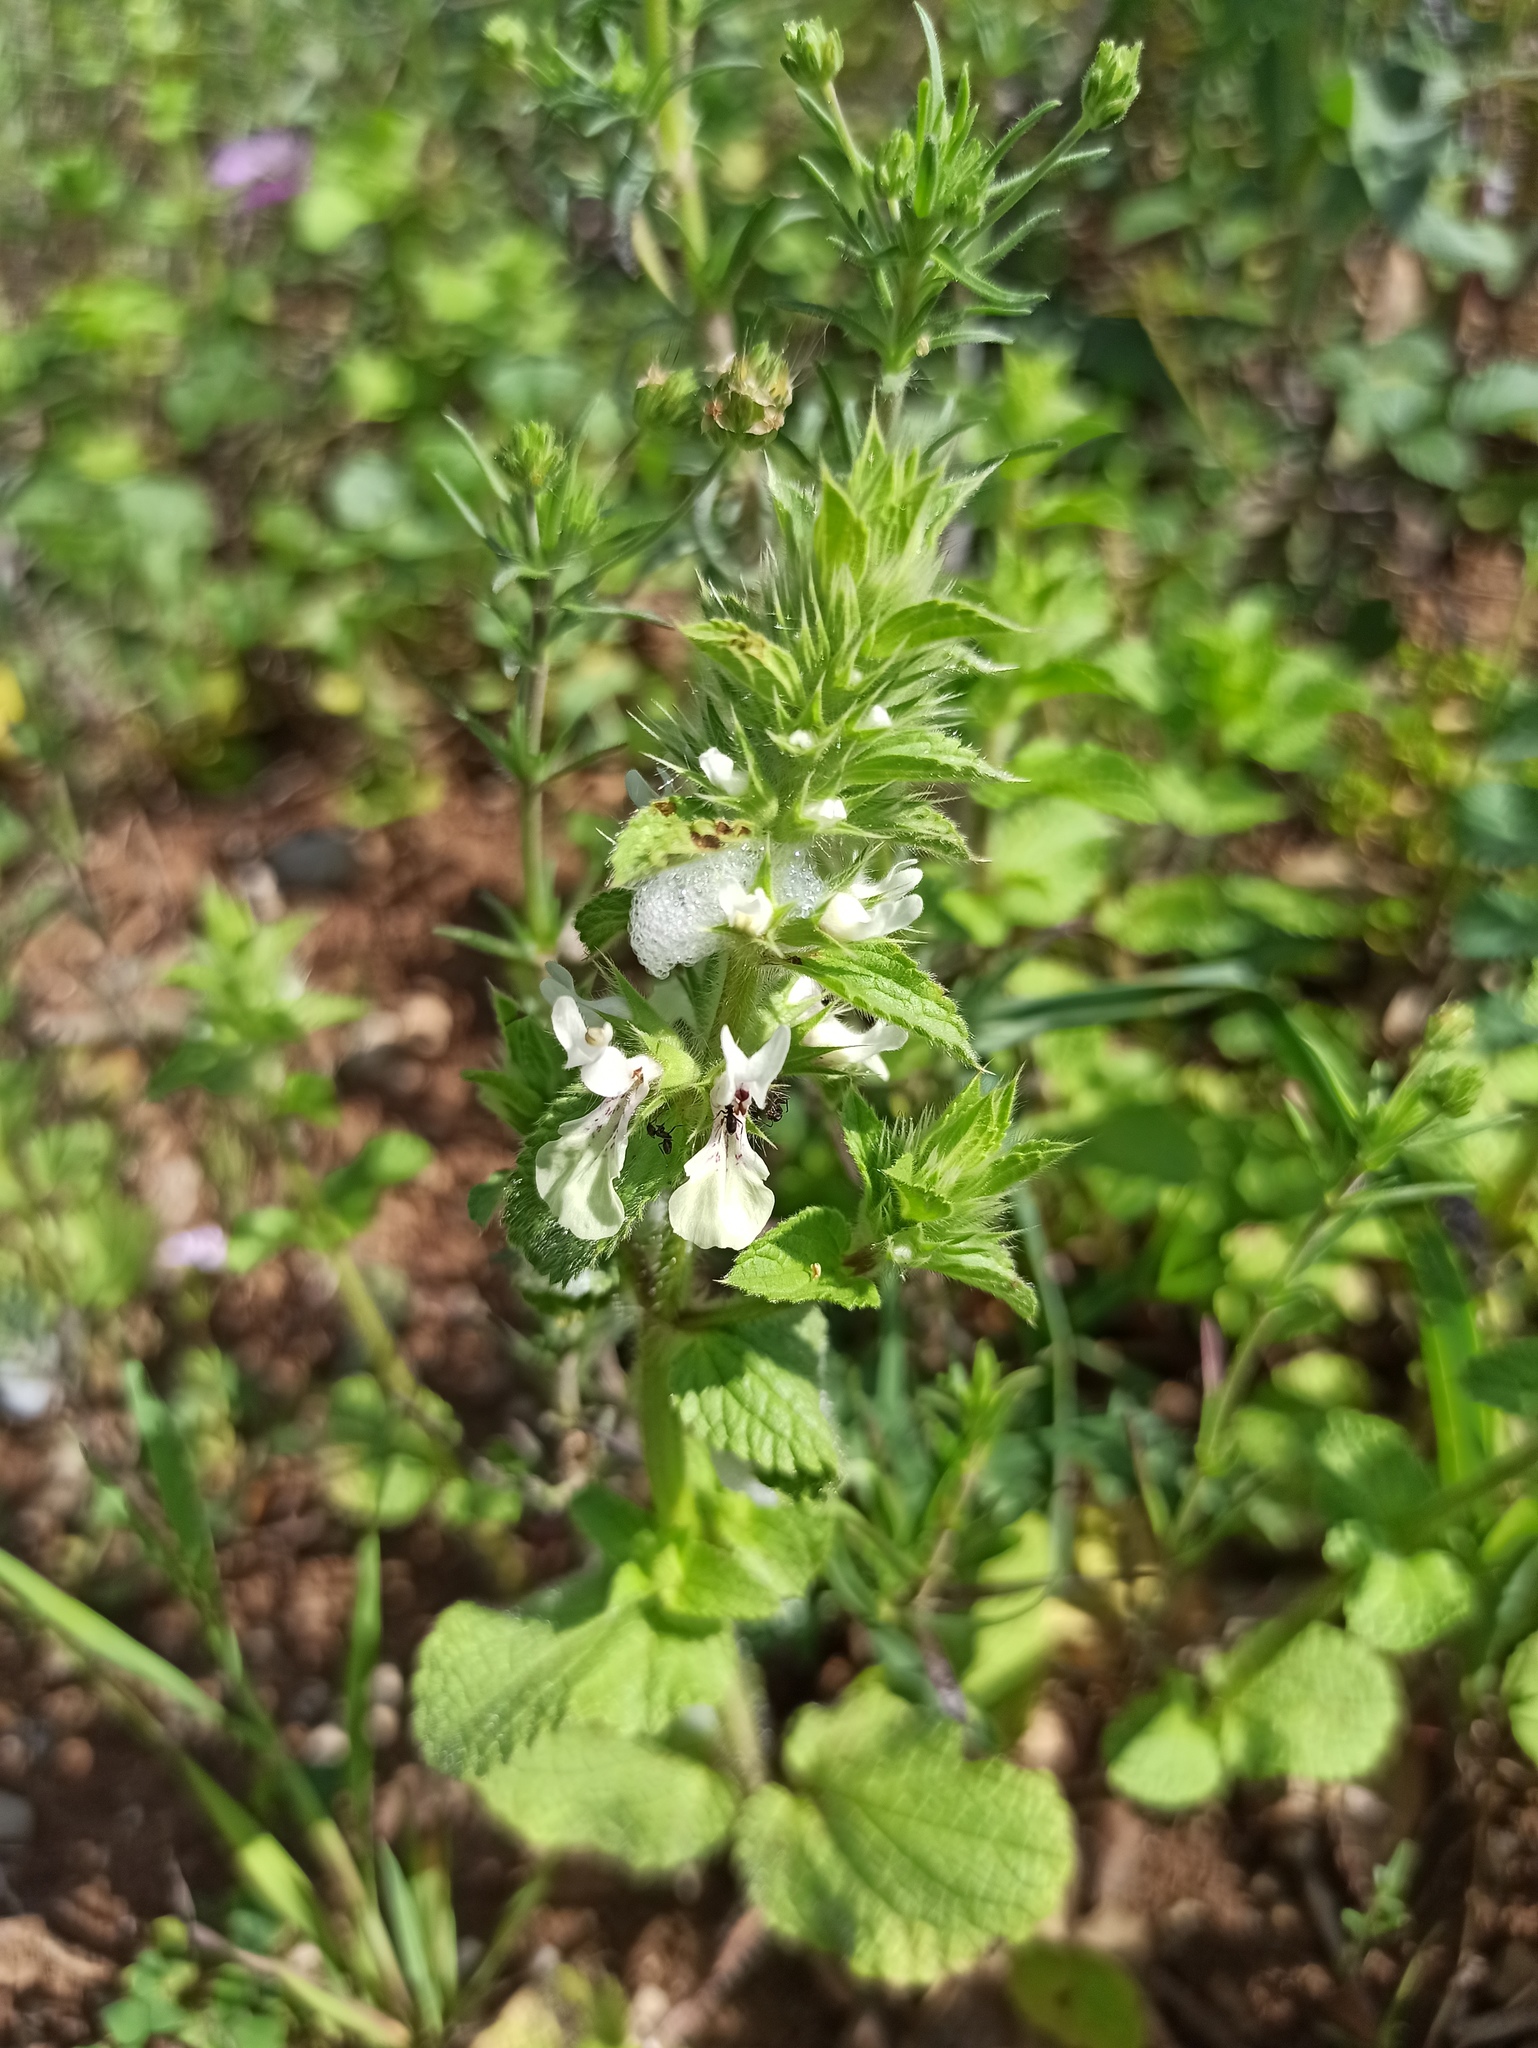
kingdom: Plantae
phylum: Tracheophyta
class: Magnoliopsida
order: Lamiales
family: Lamiaceae
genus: Stachys
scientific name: Stachys ocymastrum
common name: Italian hedgenettle
